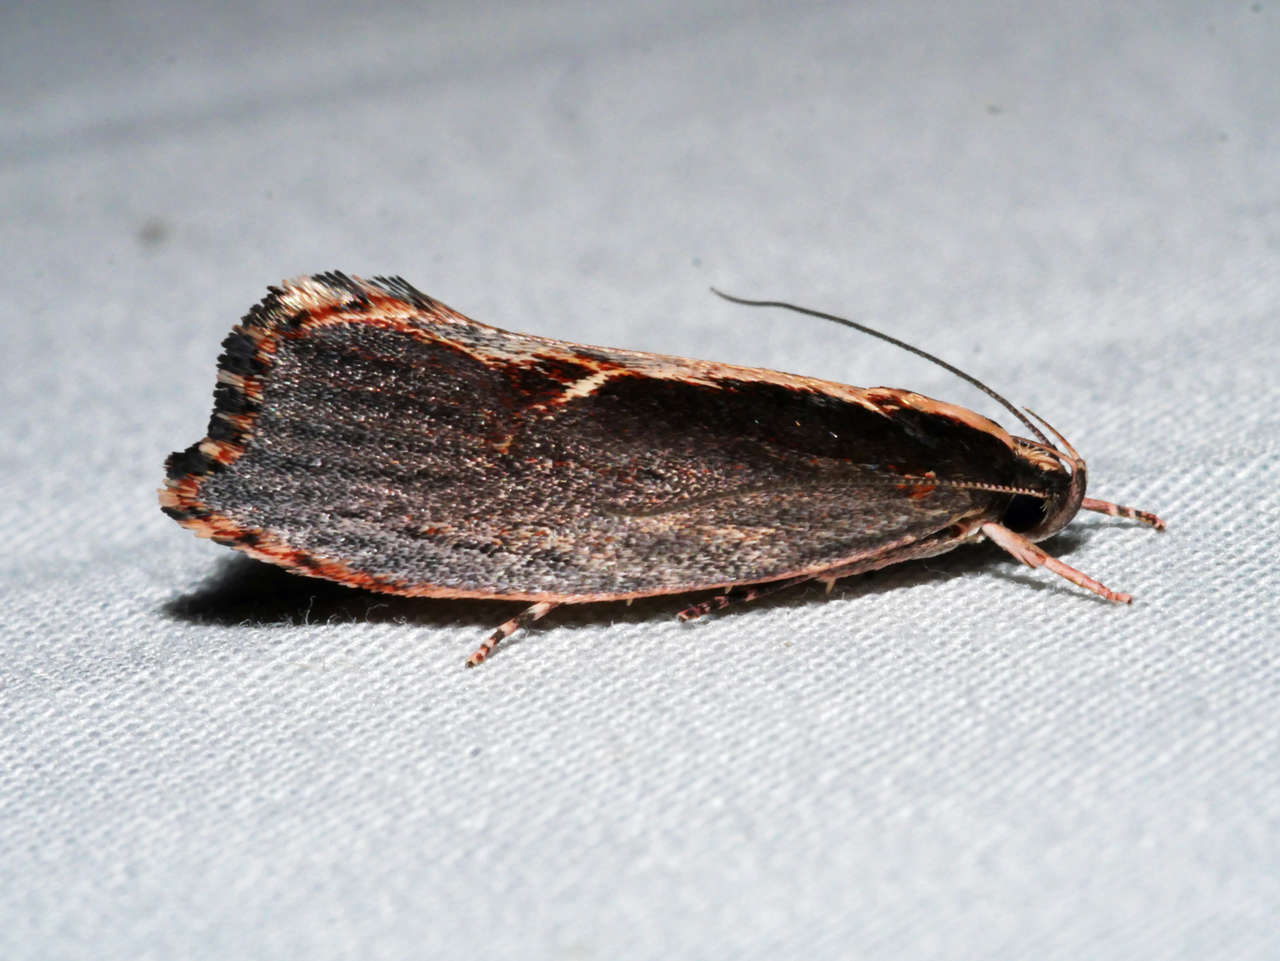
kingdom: Animalia
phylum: Arthropoda
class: Insecta
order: Lepidoptera
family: Oecophoridae
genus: Archaereta
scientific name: Archaereta dorsivittella
